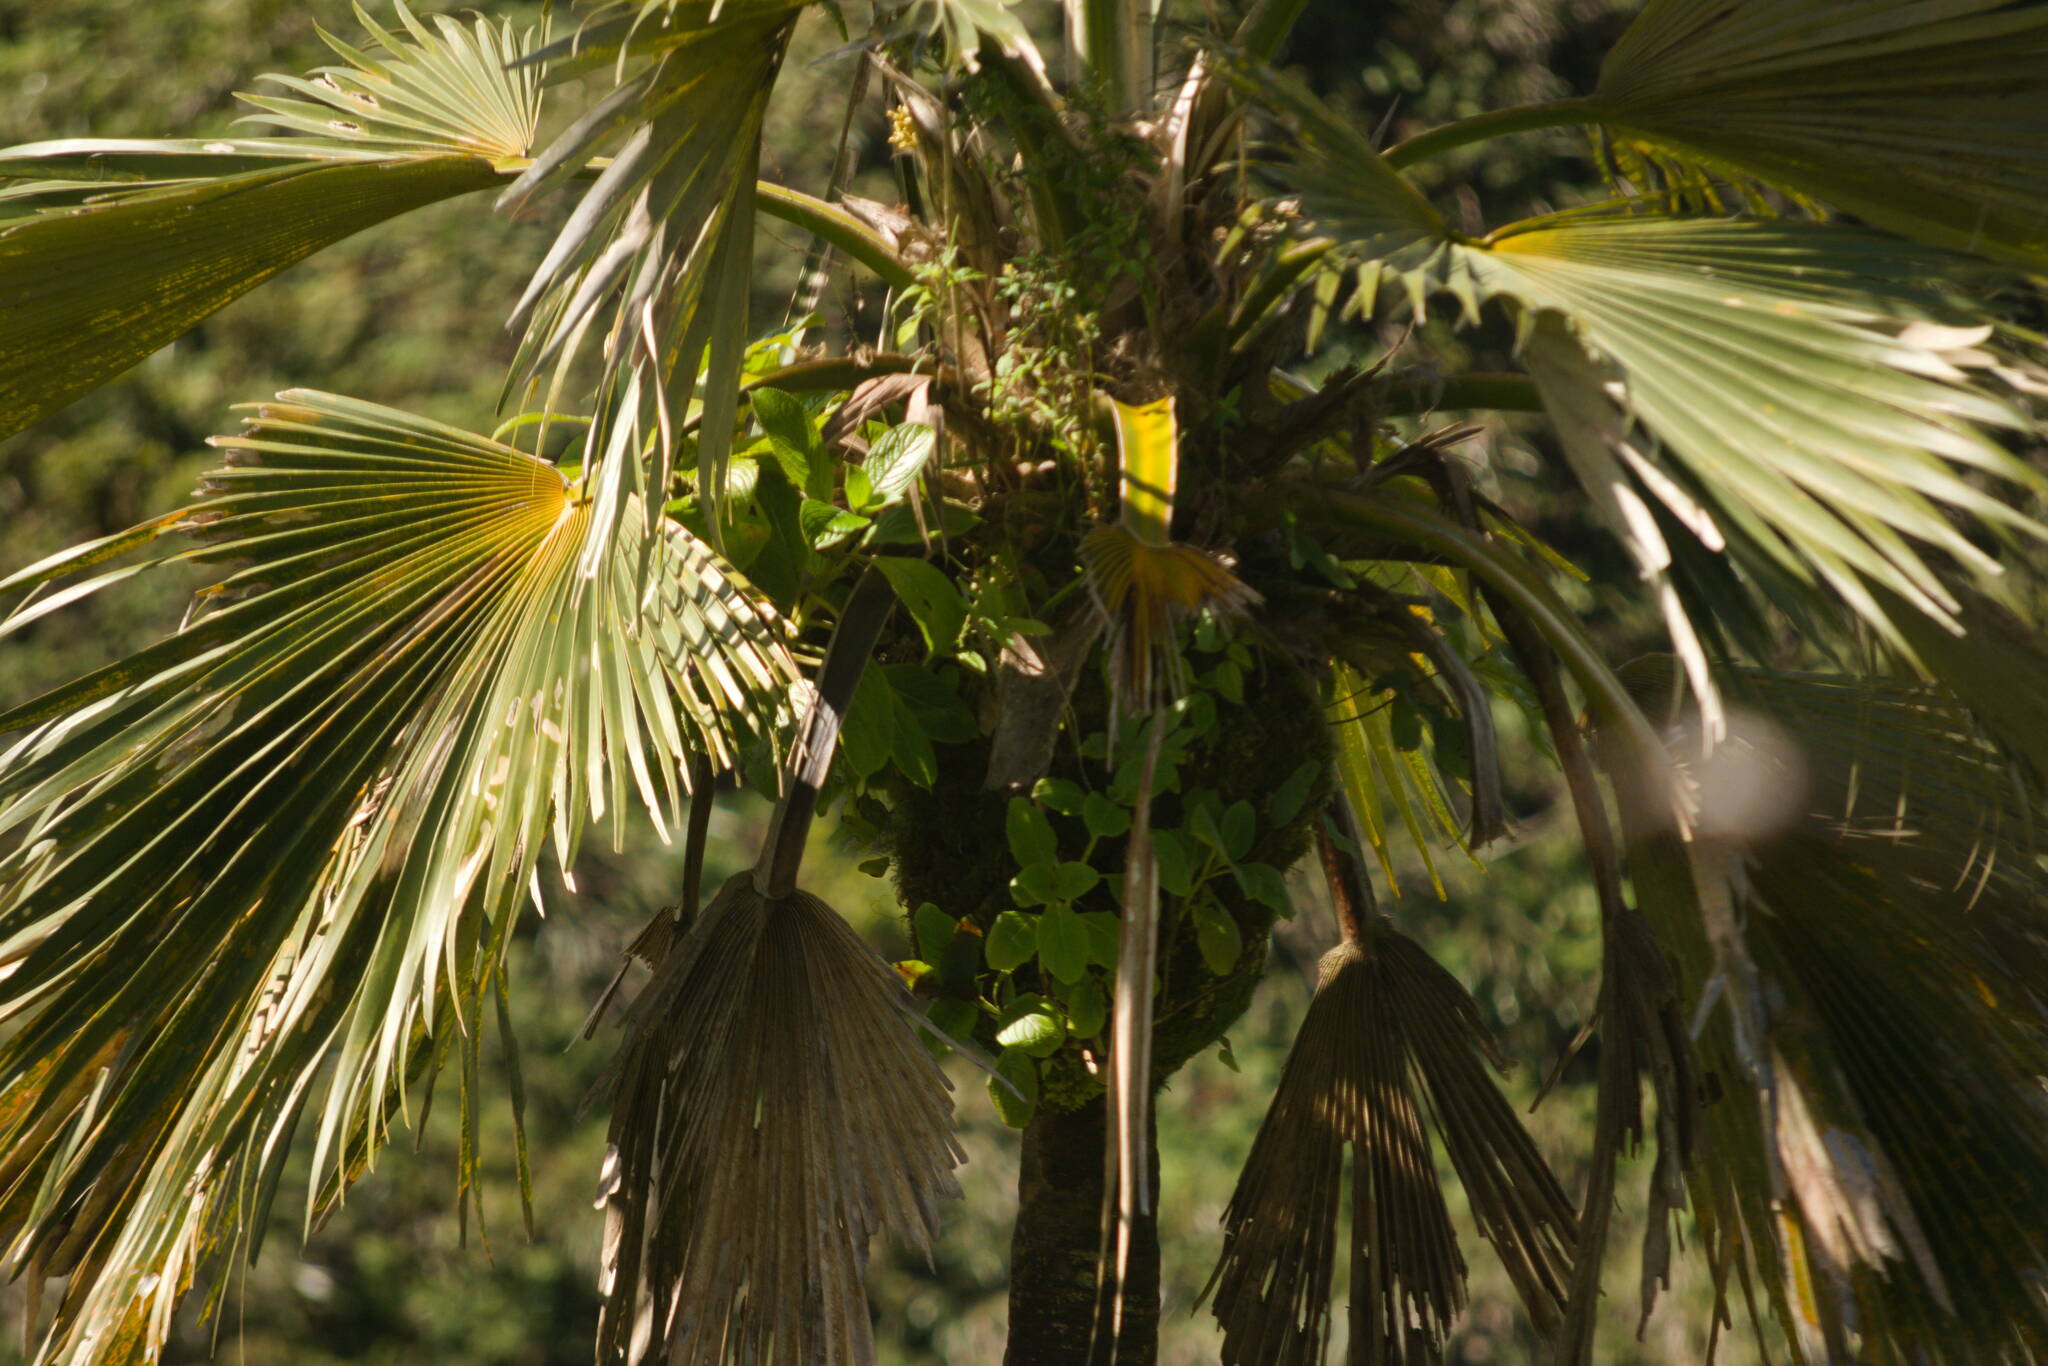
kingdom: Plantae
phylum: Tracheophyta
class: Magnoliopsida
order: Cornales
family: Hydrangeaceae
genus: Hydrangea
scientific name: Hydrangea arguta
